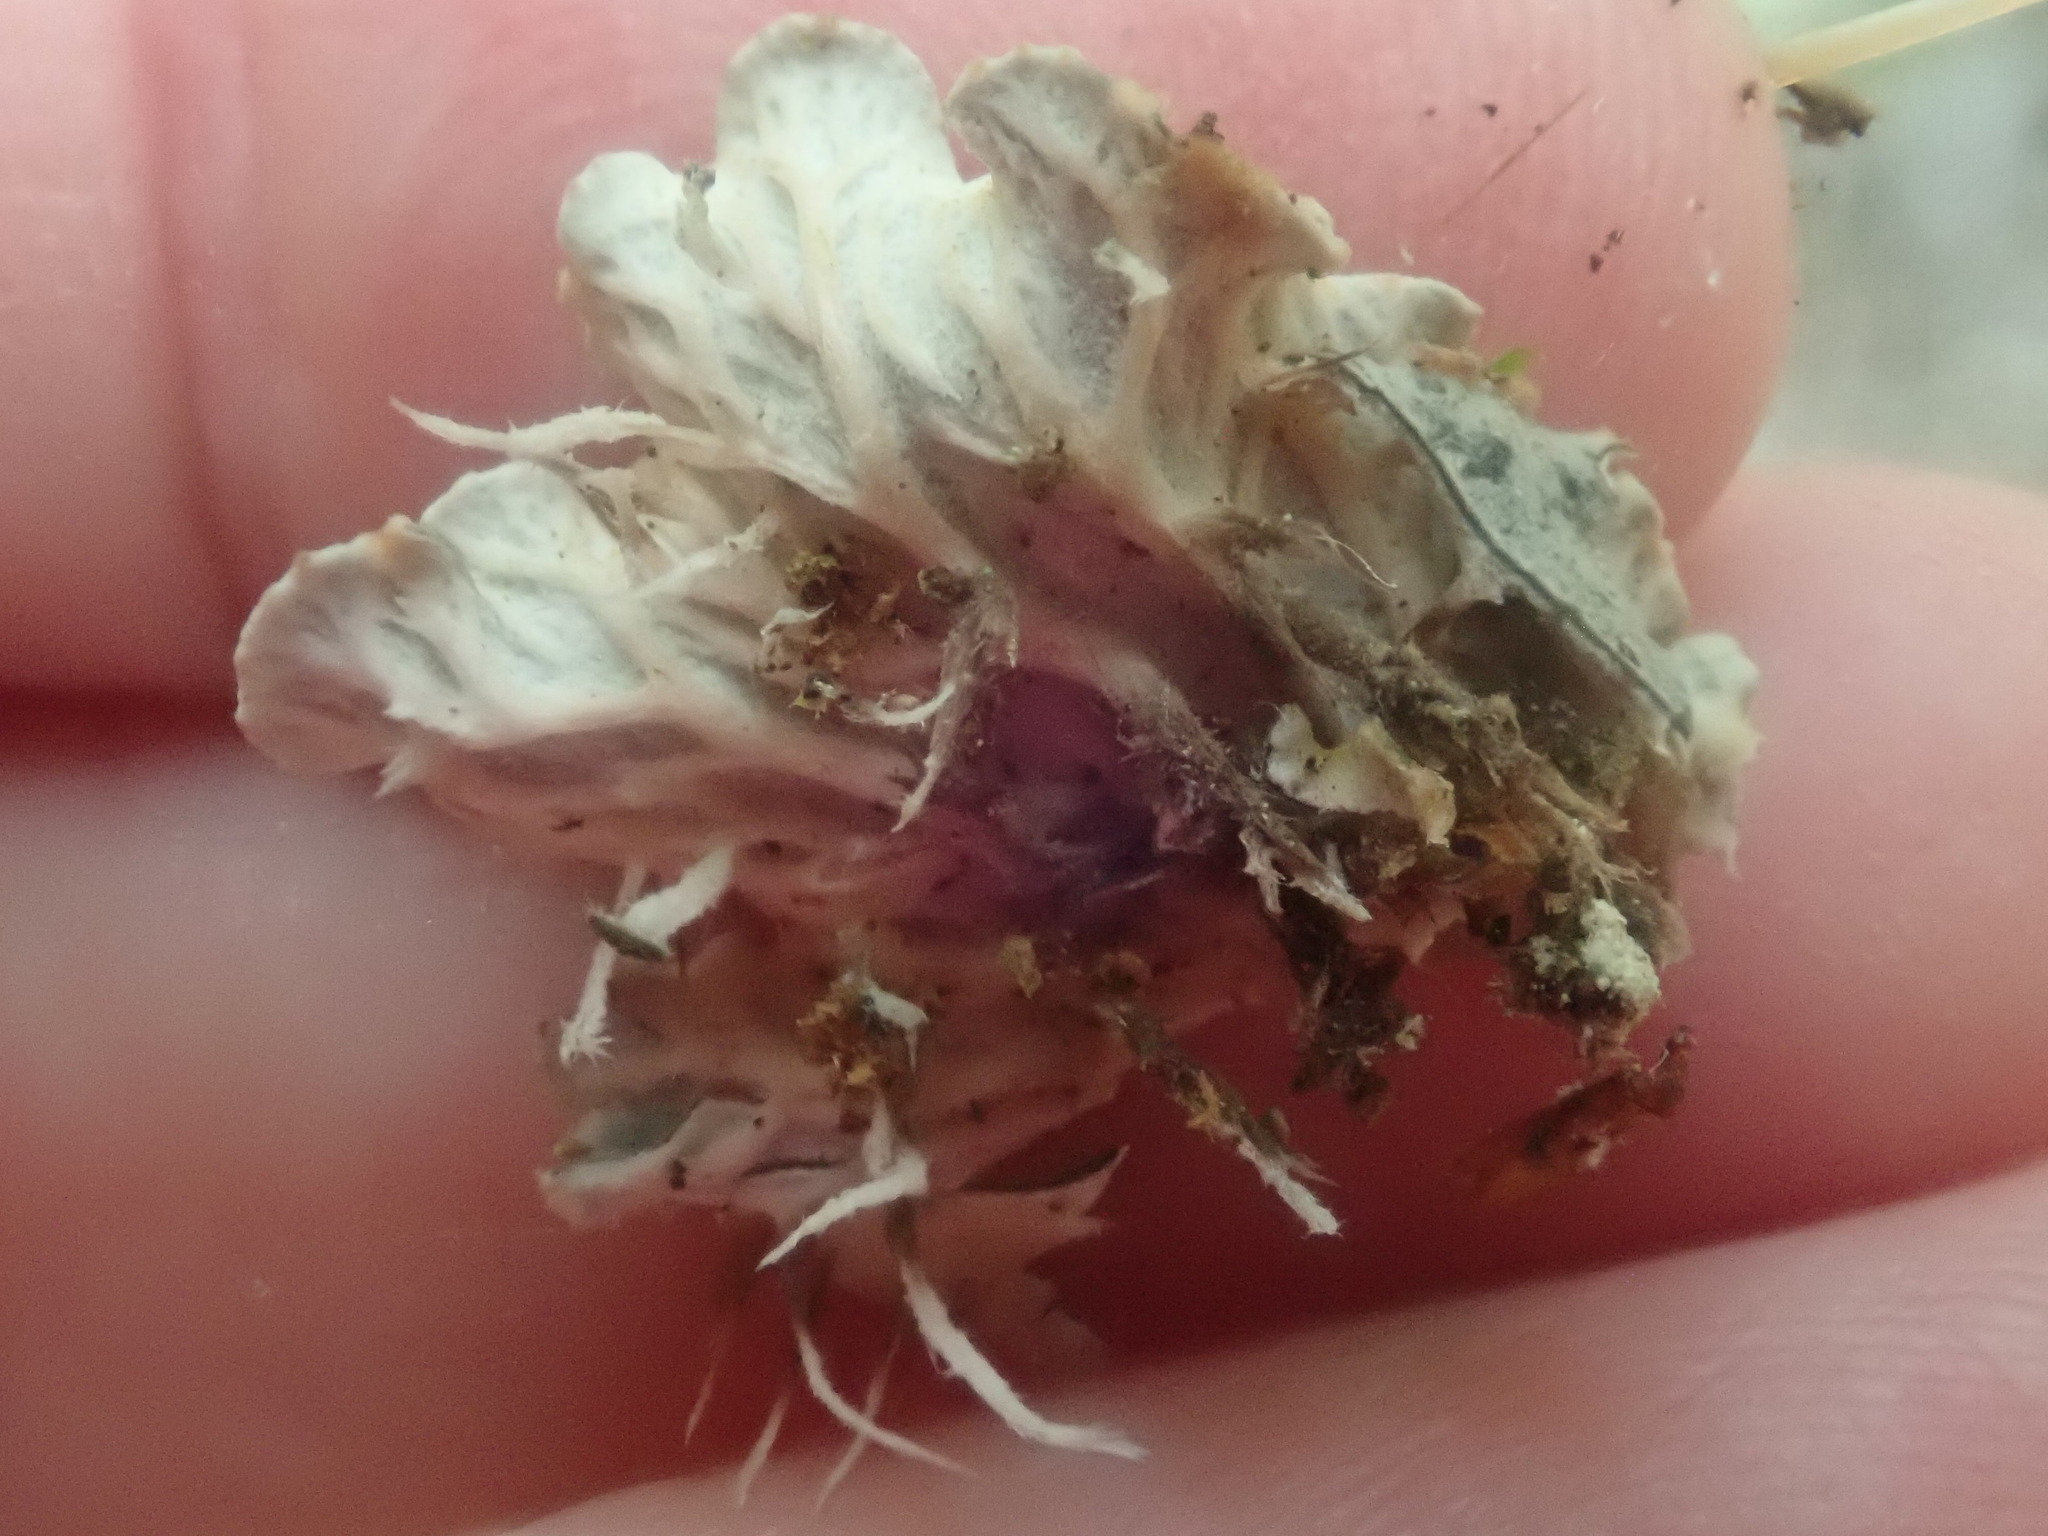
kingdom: Fungi
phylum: Ascomycota
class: Lecanoromycetes
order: Peltigerales
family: Peltigeraceae
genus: Peltigera
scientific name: Peltigera praetextata
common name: Scaly dog-lichen
